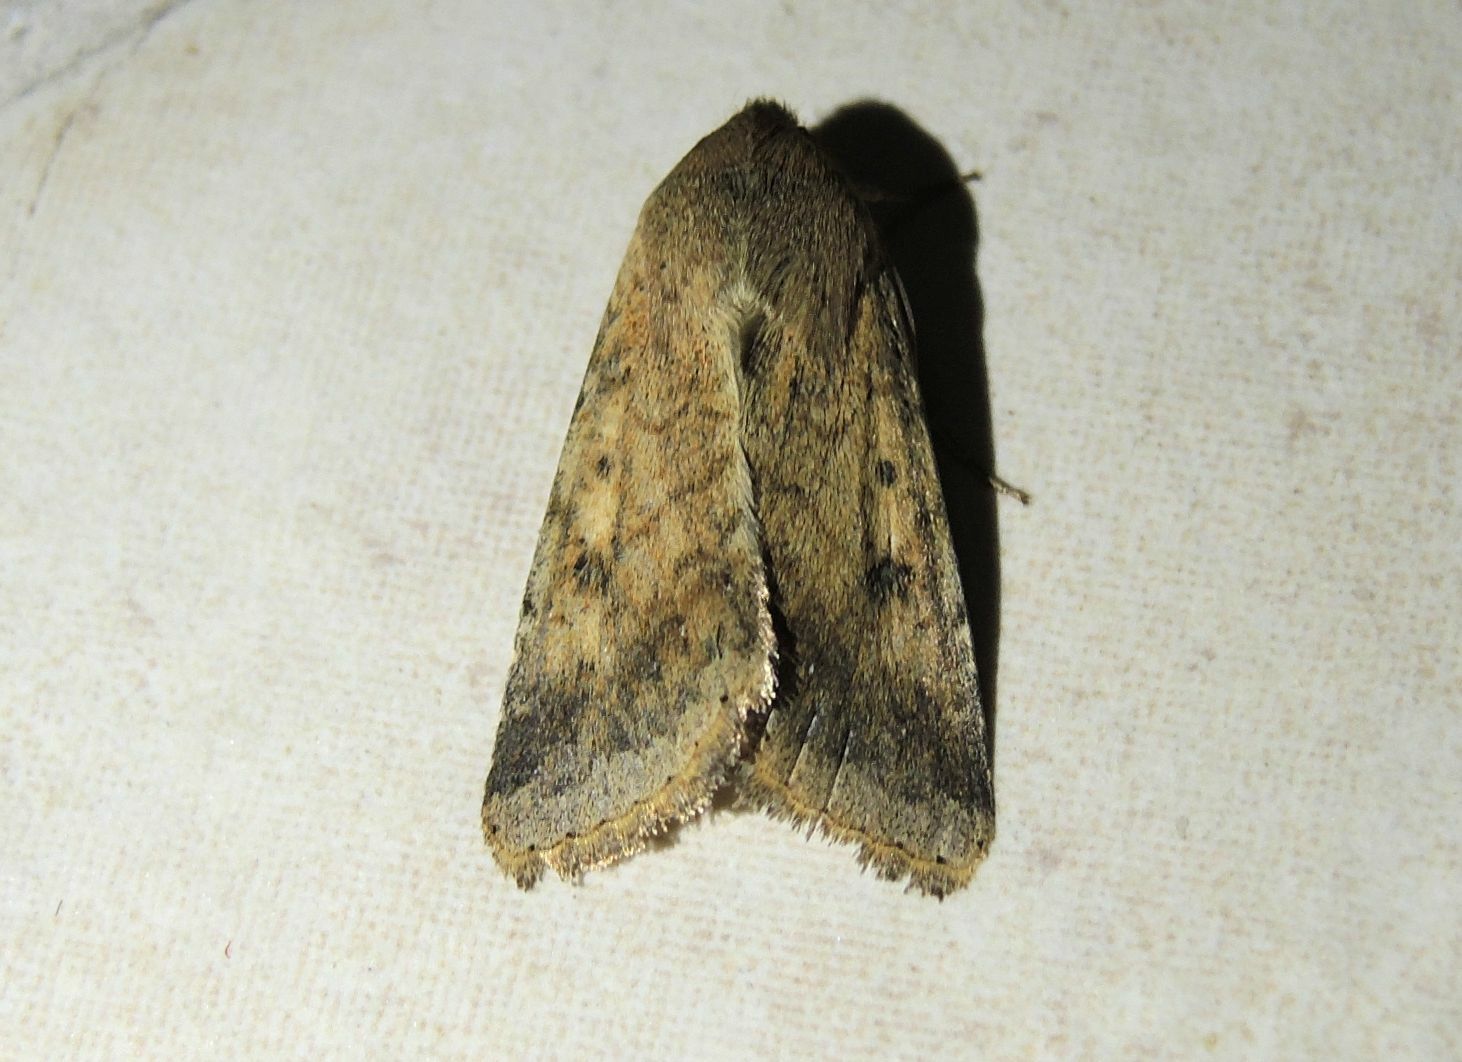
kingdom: Animalia
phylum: Arthropoda
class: Insecta
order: Lepidoptera
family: Noctuidae
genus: Helicoverpa
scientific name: Helicoverpa armigera
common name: Cotton bollworm
